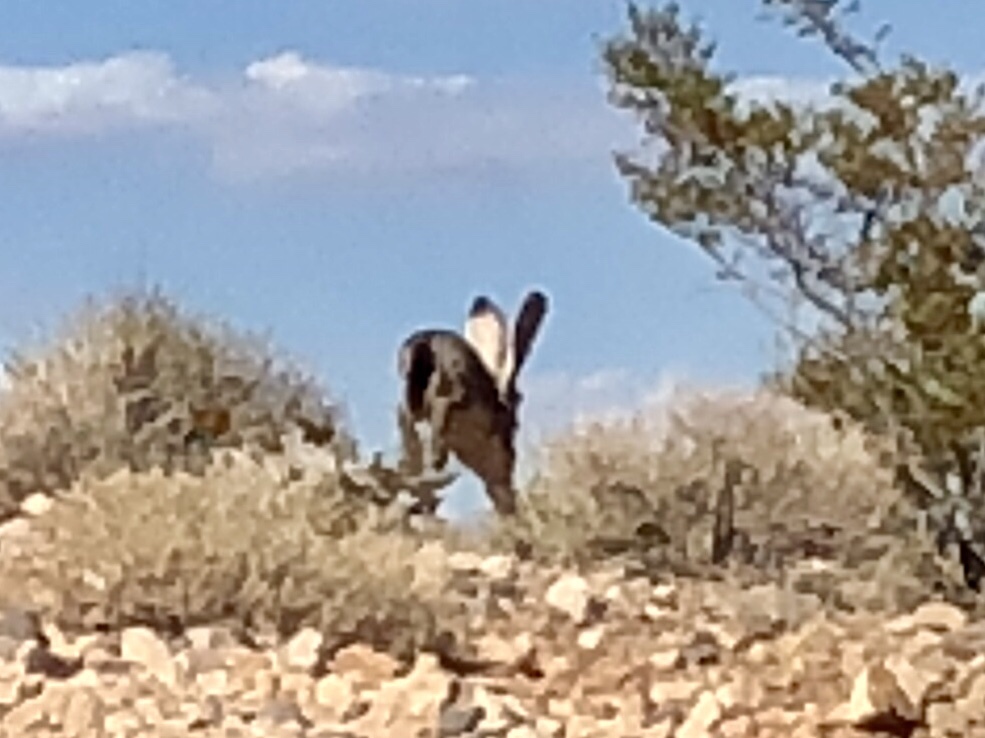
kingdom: Animalia
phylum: Chordata
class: Mammalia
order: Lagomorpha
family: Leporidae
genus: Lepus
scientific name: Lepus californicus
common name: Black-tailed jackrabbit
